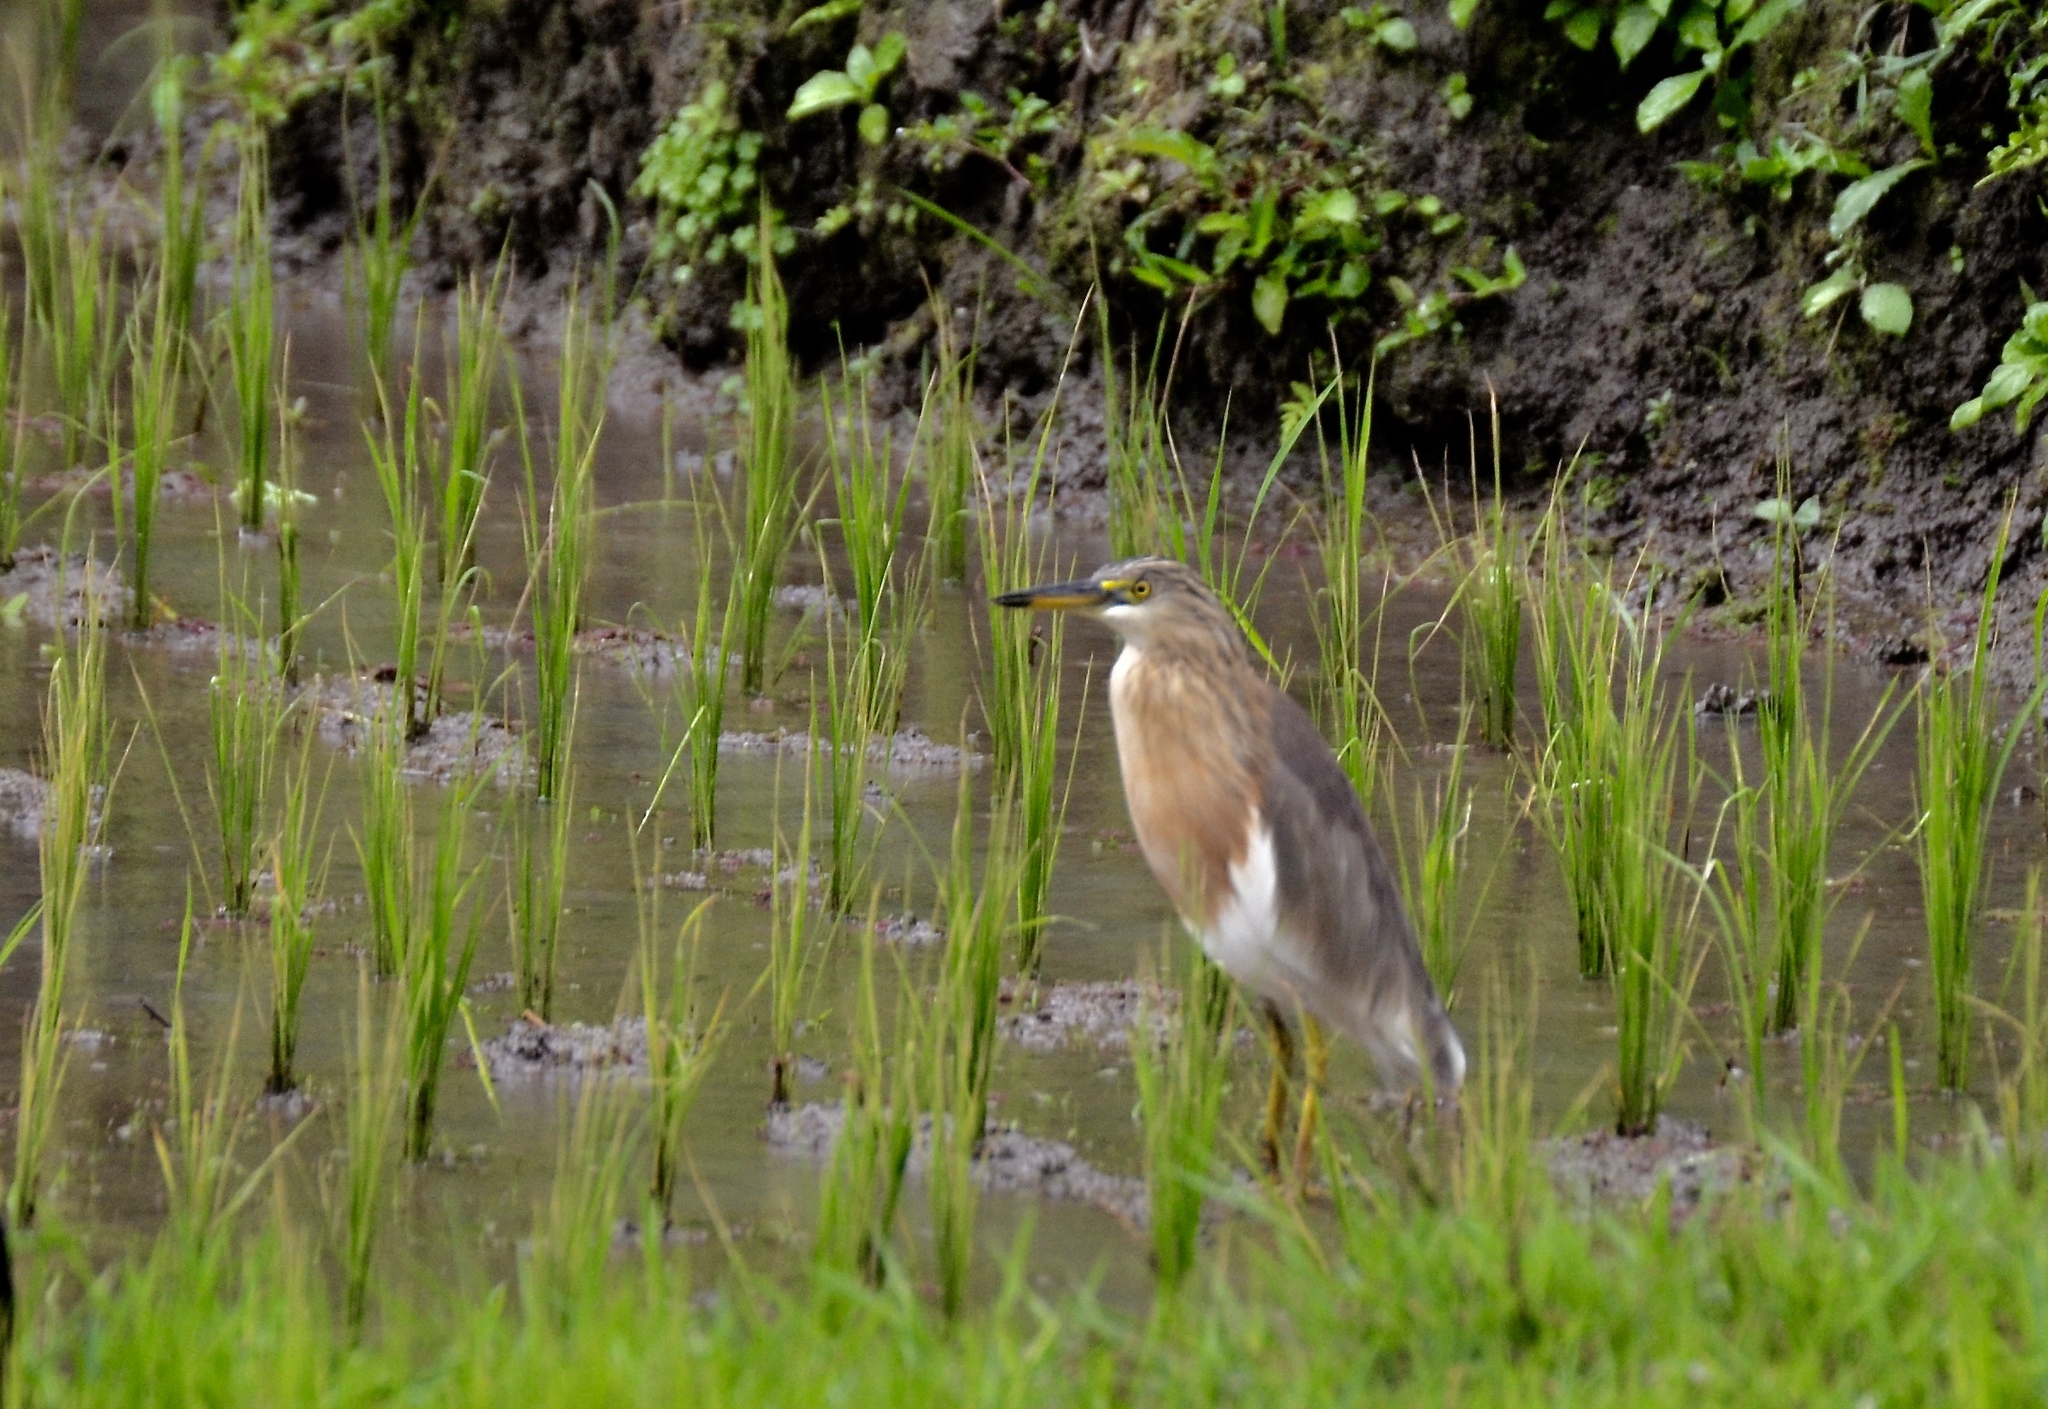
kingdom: Animalia
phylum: Chordata
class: Aves
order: Pelecaniformes
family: Ardeidae
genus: Ardeola
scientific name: Ardeola speciosa
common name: Javan pond heron
